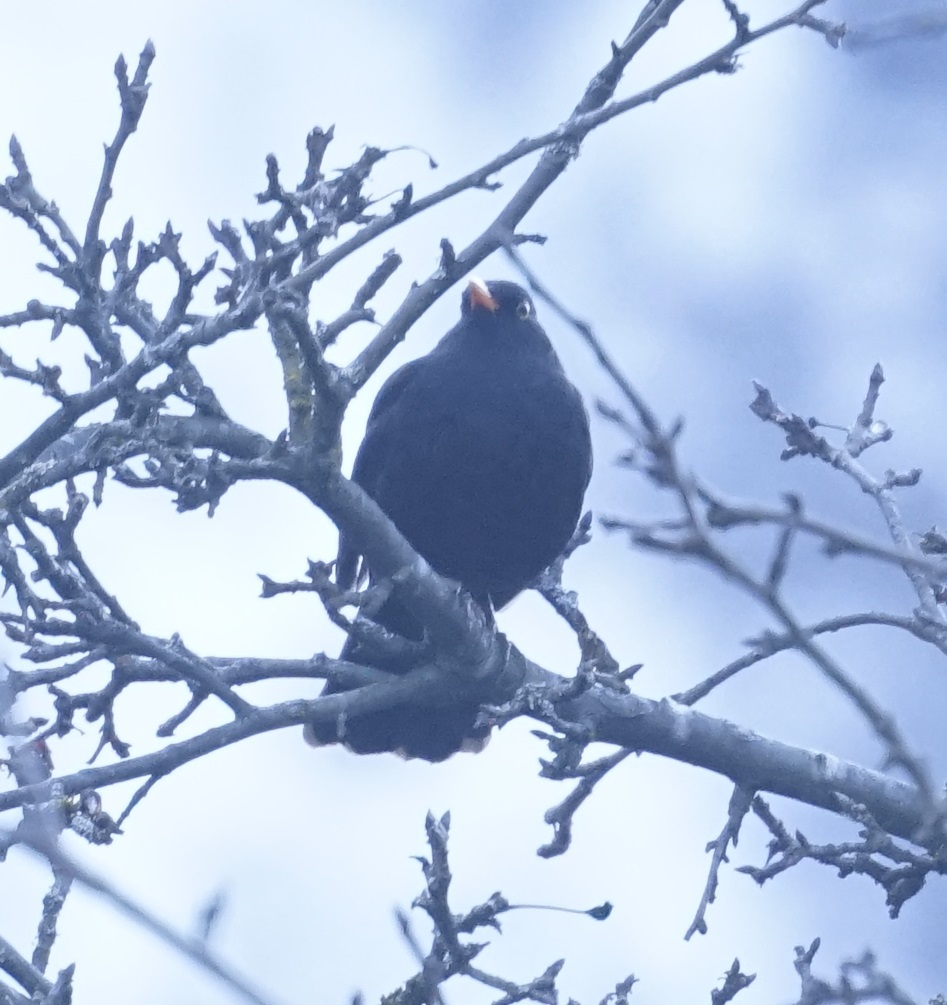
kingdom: Animalia
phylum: Chordata
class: Aves
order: Passeriformes
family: Turdidae
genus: Turdus
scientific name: Turdus merula
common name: Common blackbird
